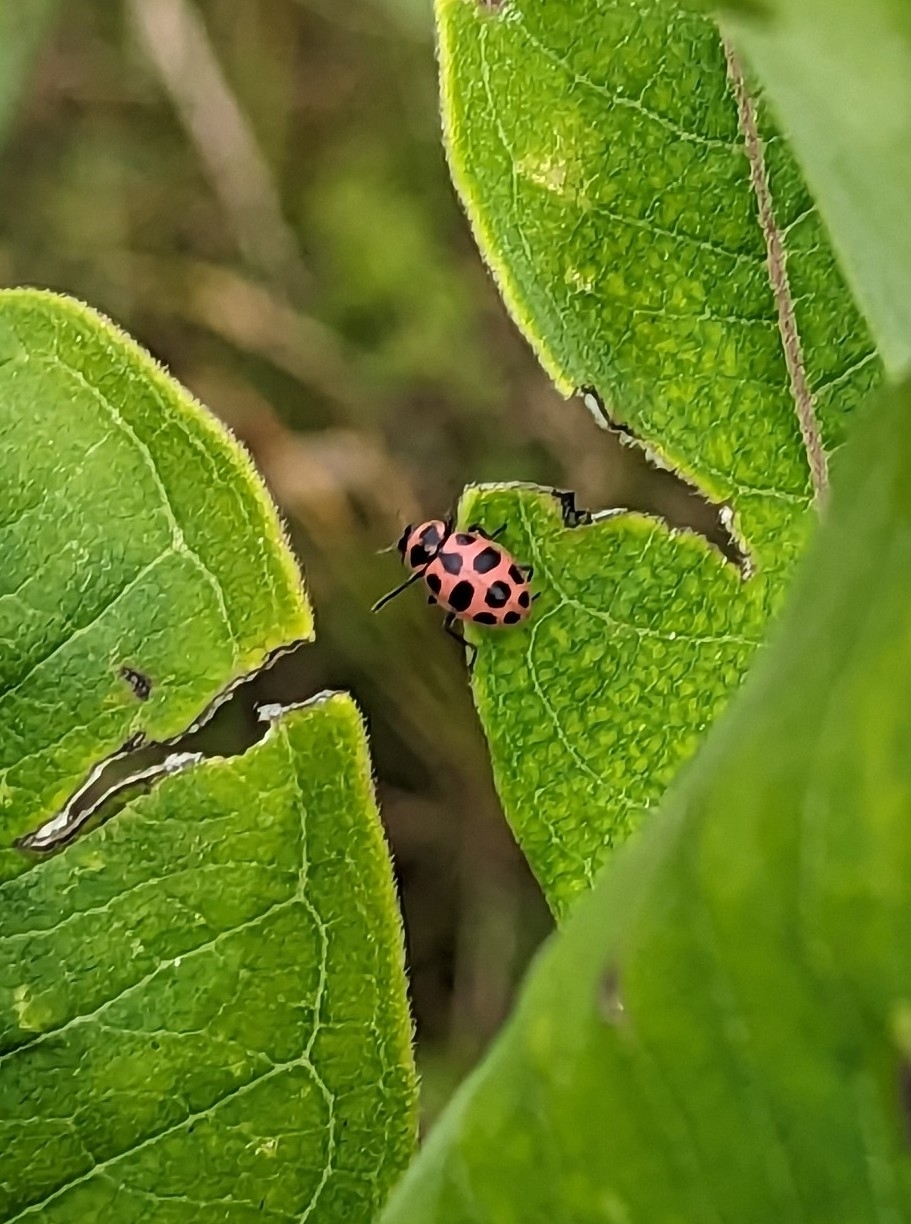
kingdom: Animalia
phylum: Arthropoda
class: Insecta
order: Coleoptera
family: Coccinellidae
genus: Coleomegilla
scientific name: Coleomegilla maculata
